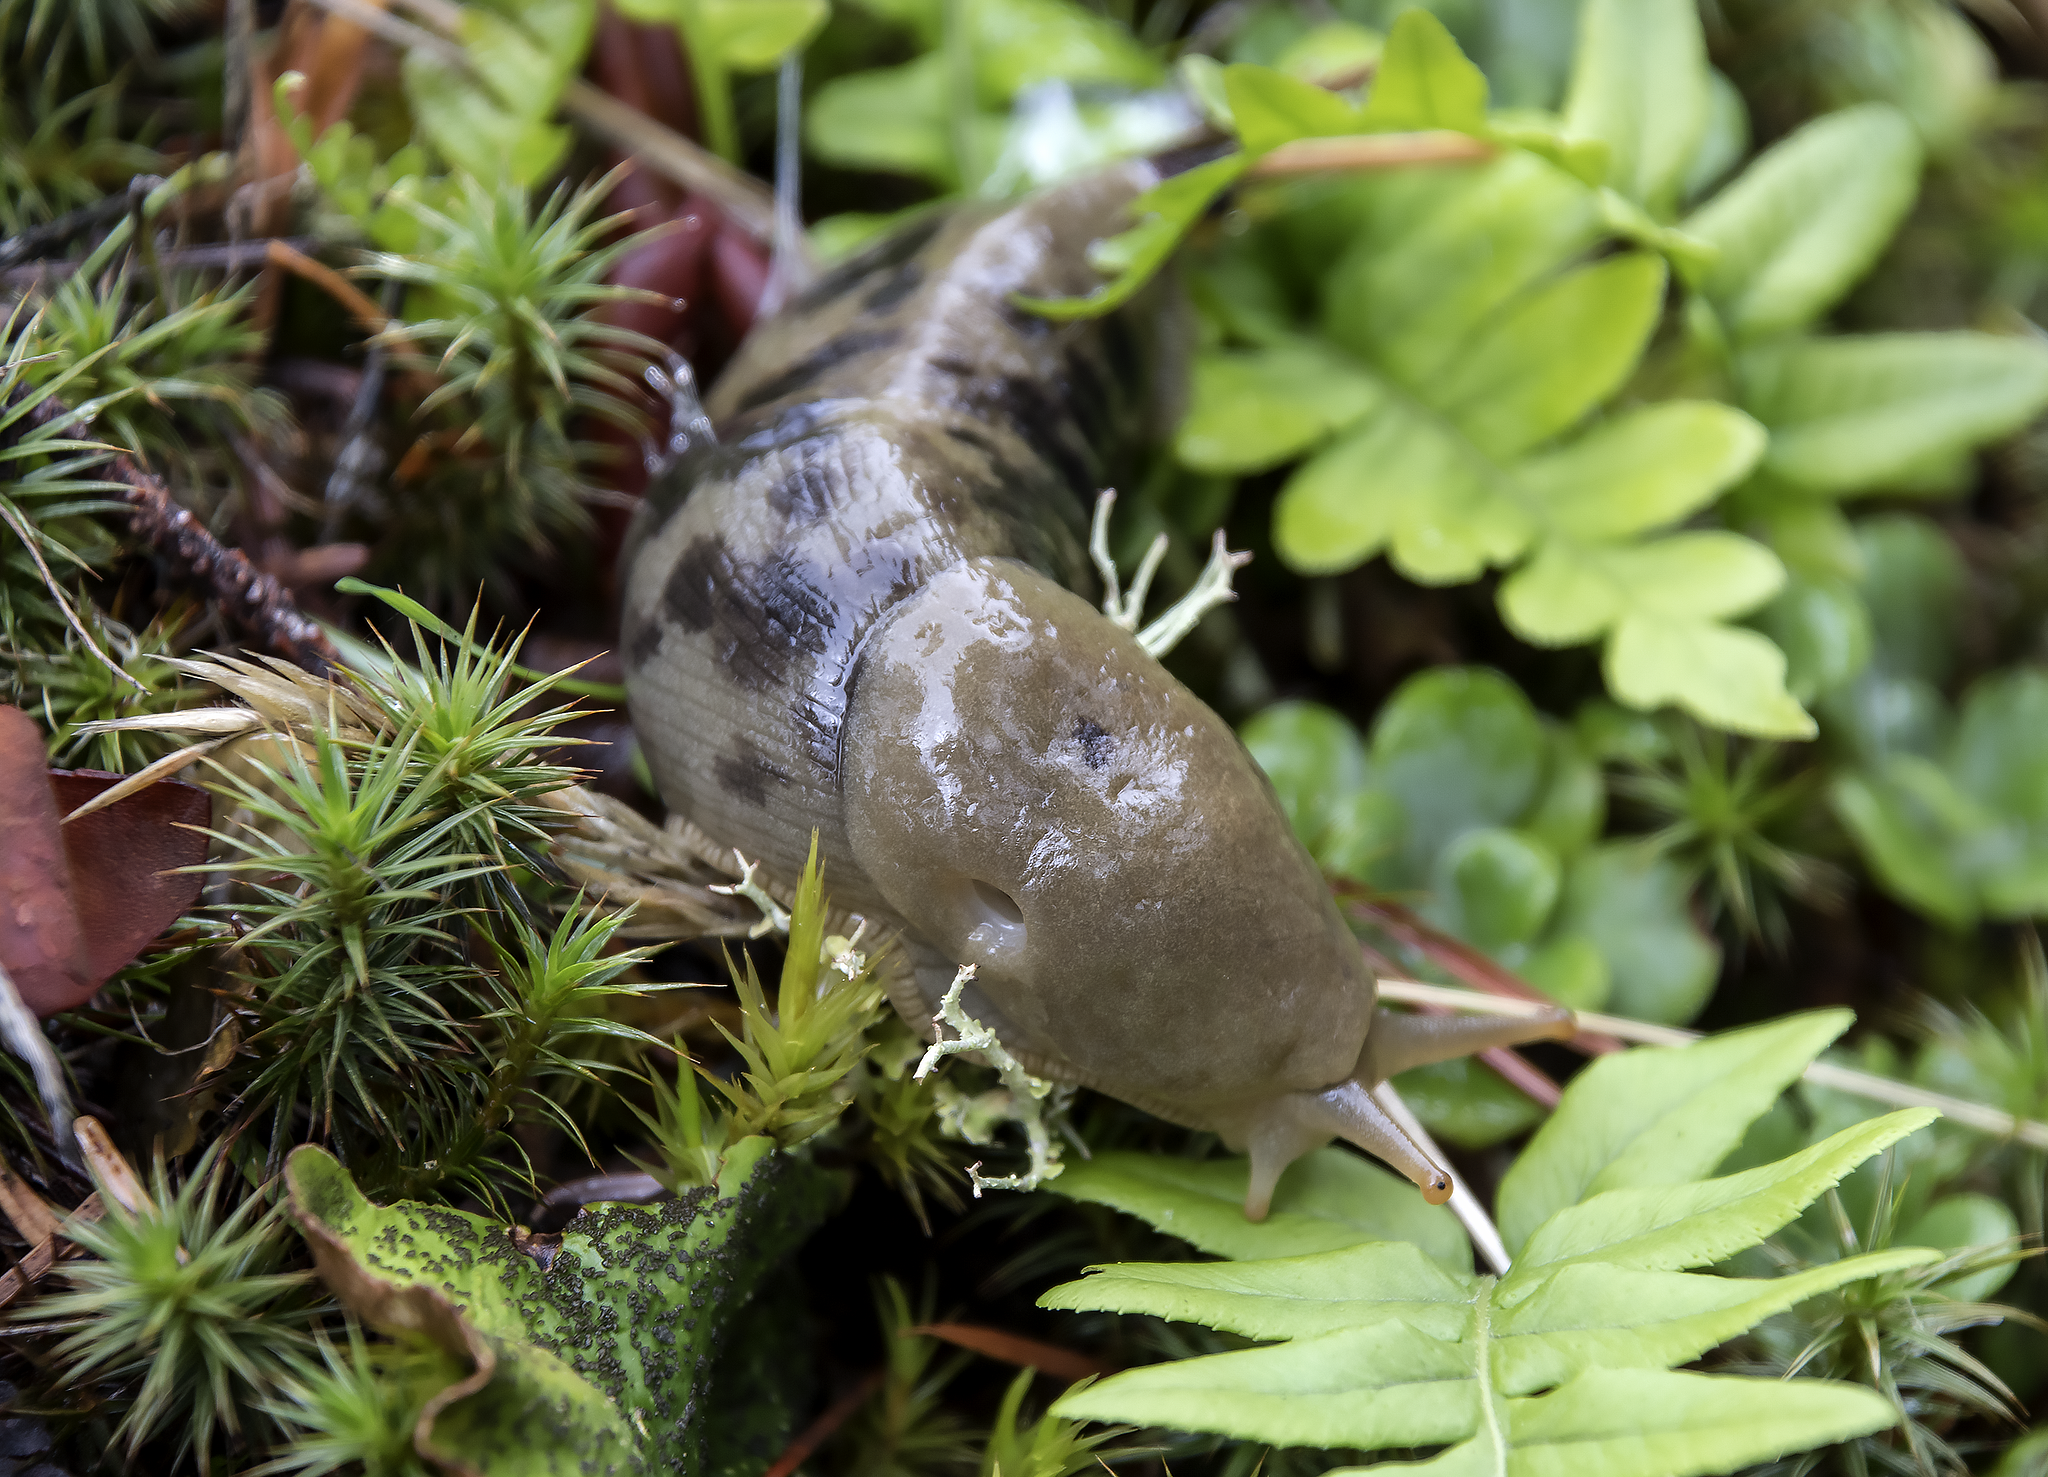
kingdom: Animalia
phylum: Mollusca
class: Gastropoda
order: Stylommatophora
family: Ariolimacidae
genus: Ariolimax
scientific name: Ariolimax columbianus
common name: Pacific banana slug
